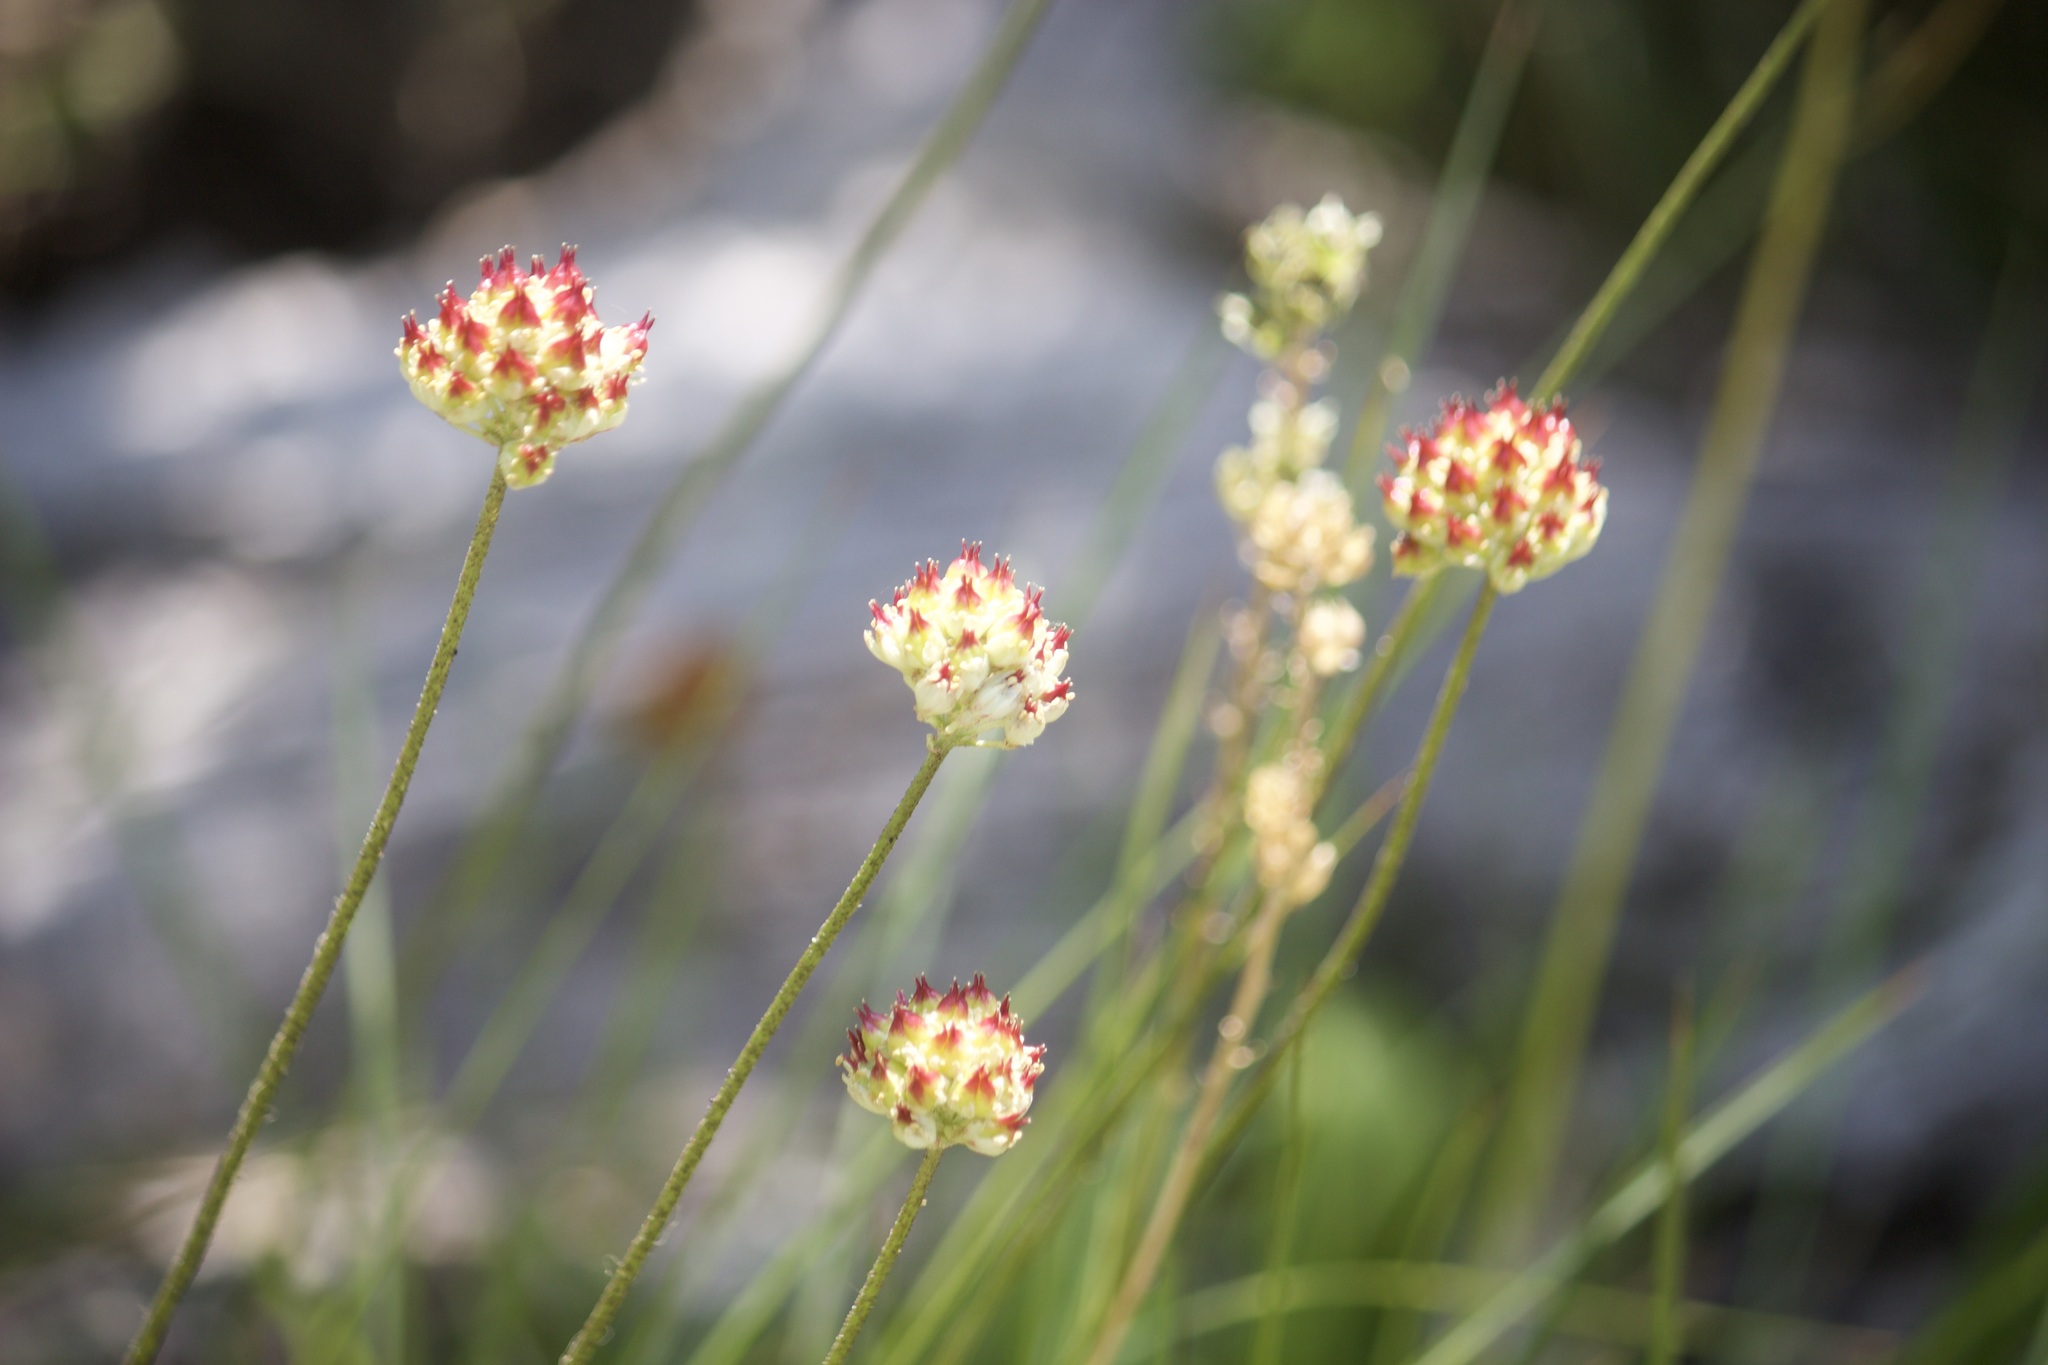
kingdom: Plantae
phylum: Tracheophyta
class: Liliopsida
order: Alismatales
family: Tofieldiaceae
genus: Triantha
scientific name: Triantha occidentalis
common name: Western false asphodel
